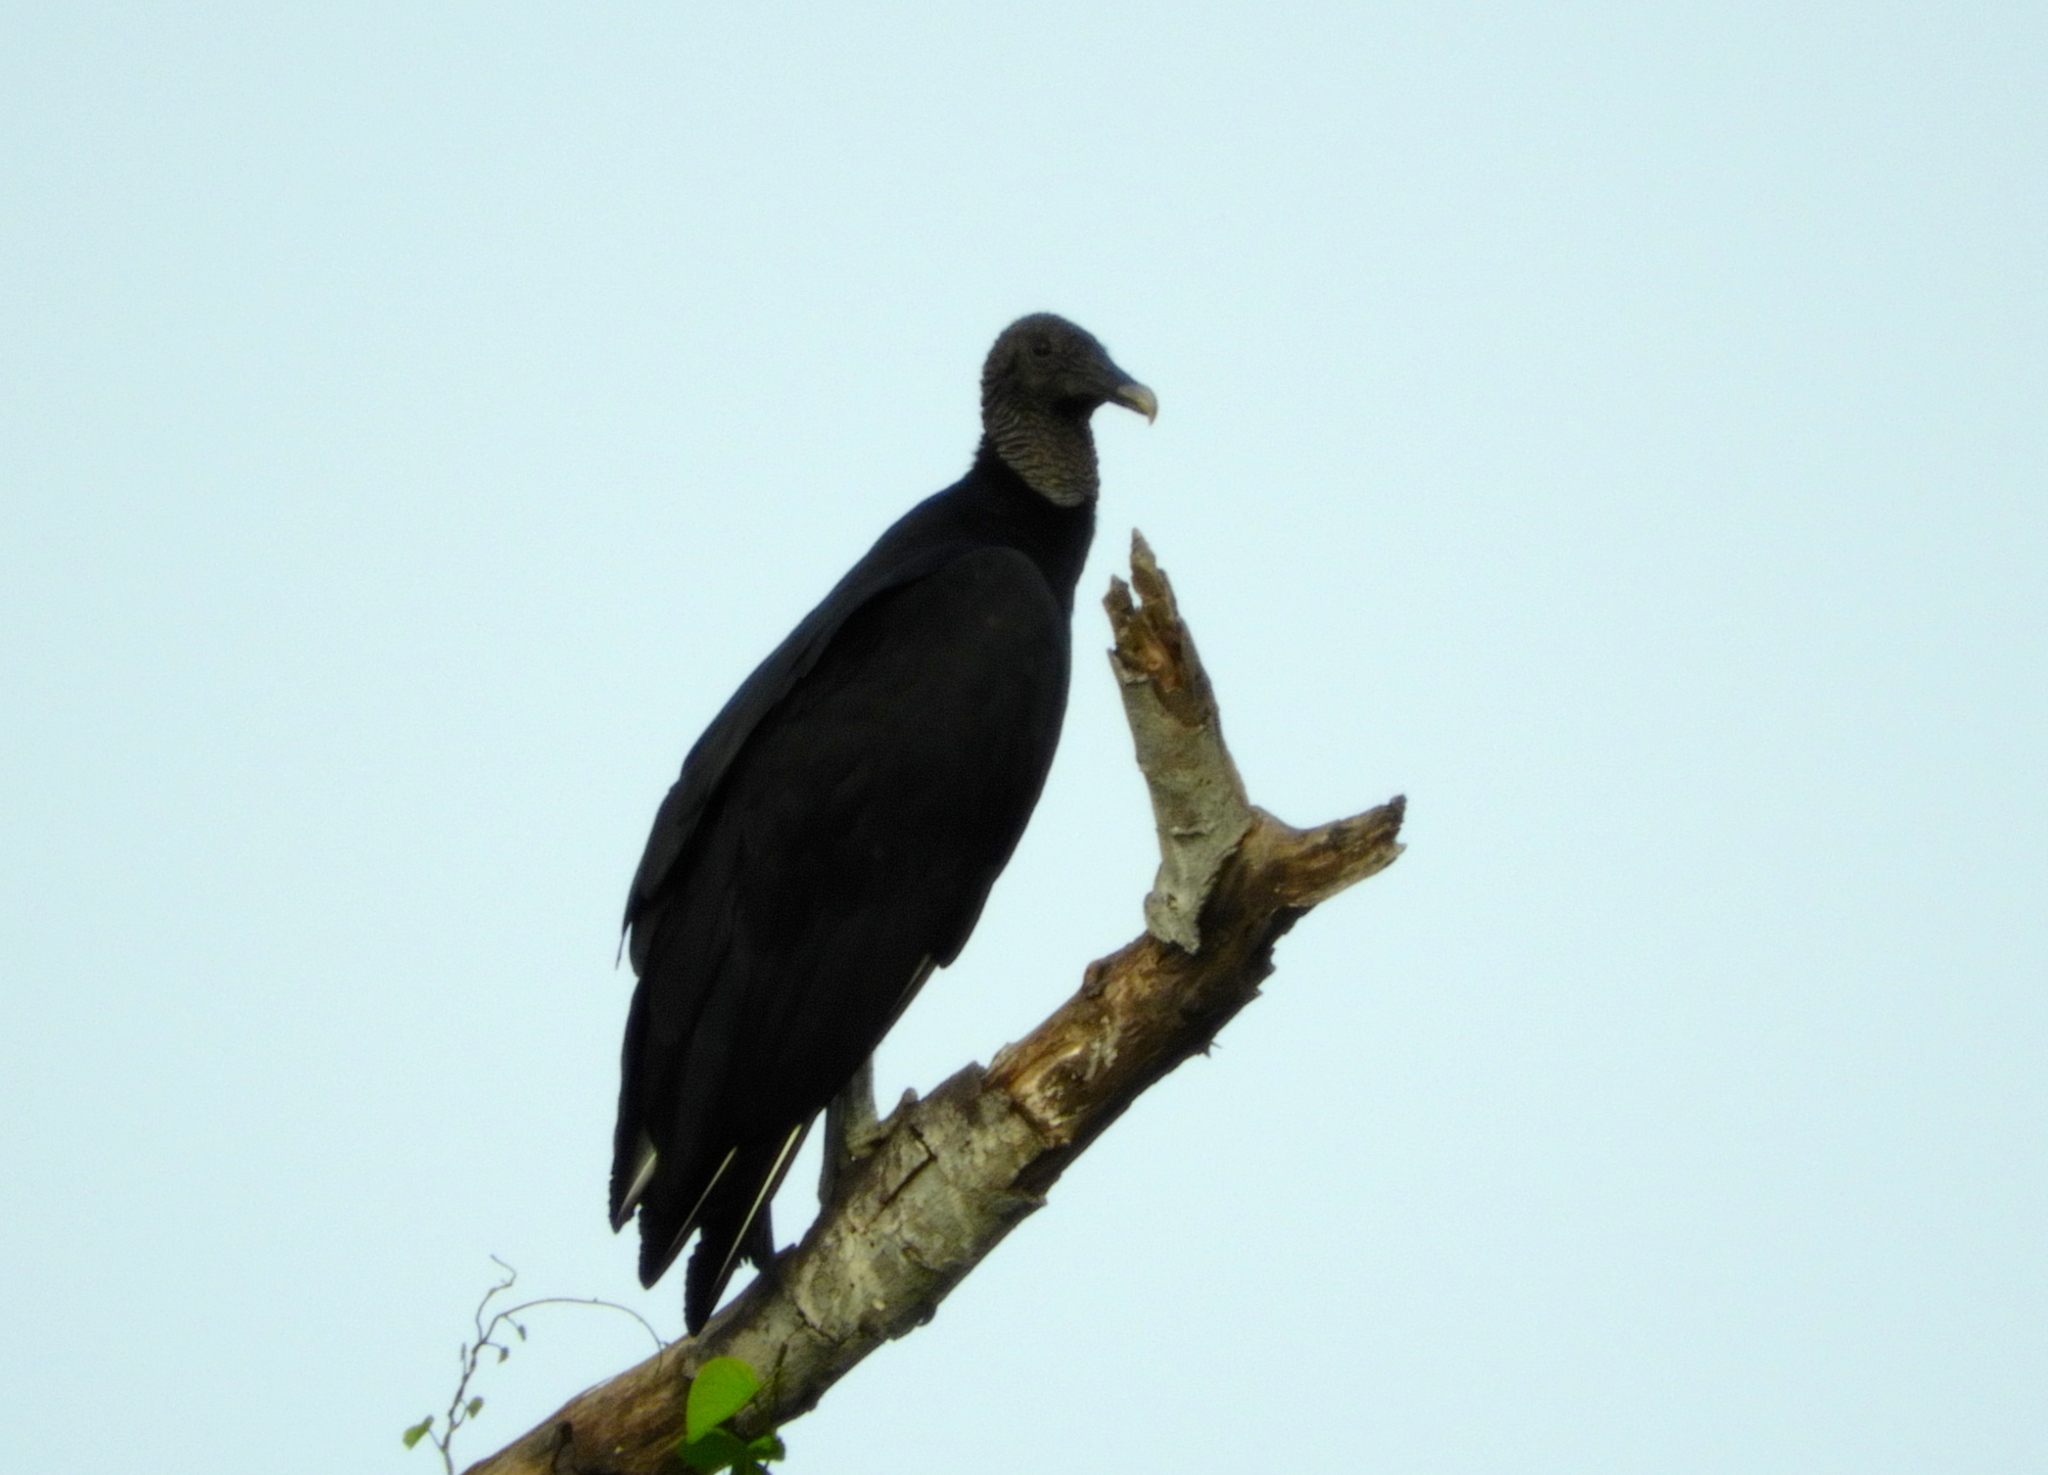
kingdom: Animalia
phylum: Chordata
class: Aves
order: Accipitriformes
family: Cathartidae
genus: Coragyps
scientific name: Coragyps atratus
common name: Black vulture
